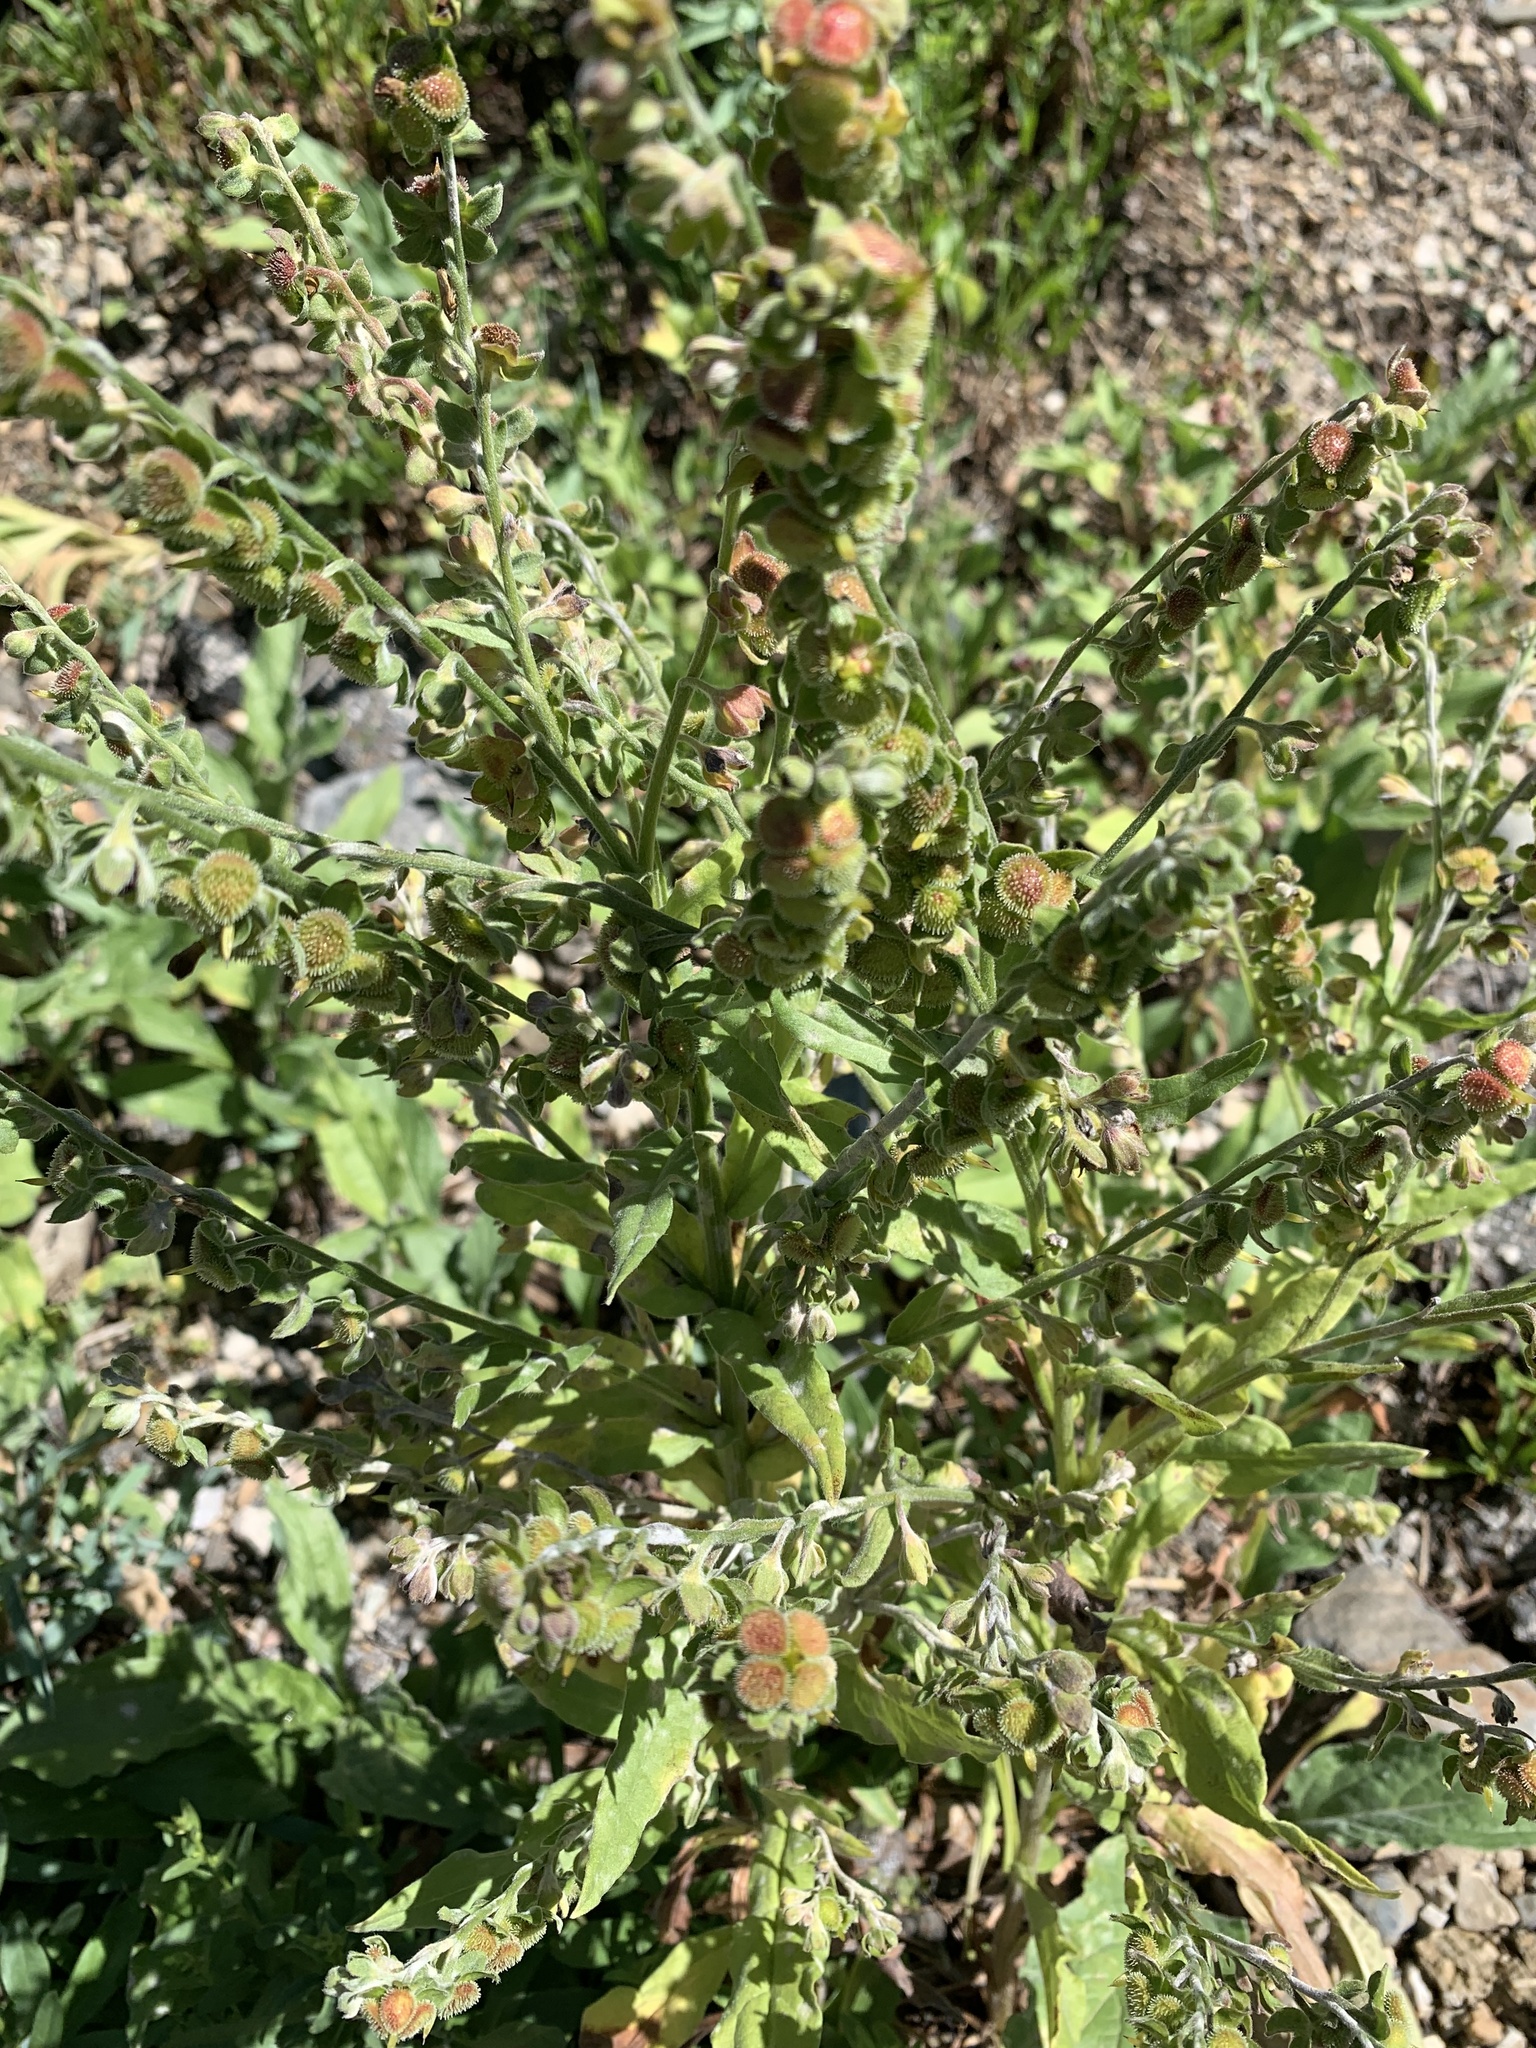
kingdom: Plantae
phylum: Tracheophyta
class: Magnoliopsida
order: Boraginales
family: Boraginaceae
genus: Cynoglossum
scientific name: Cynoglossum officinale
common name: Hound's-tongue
